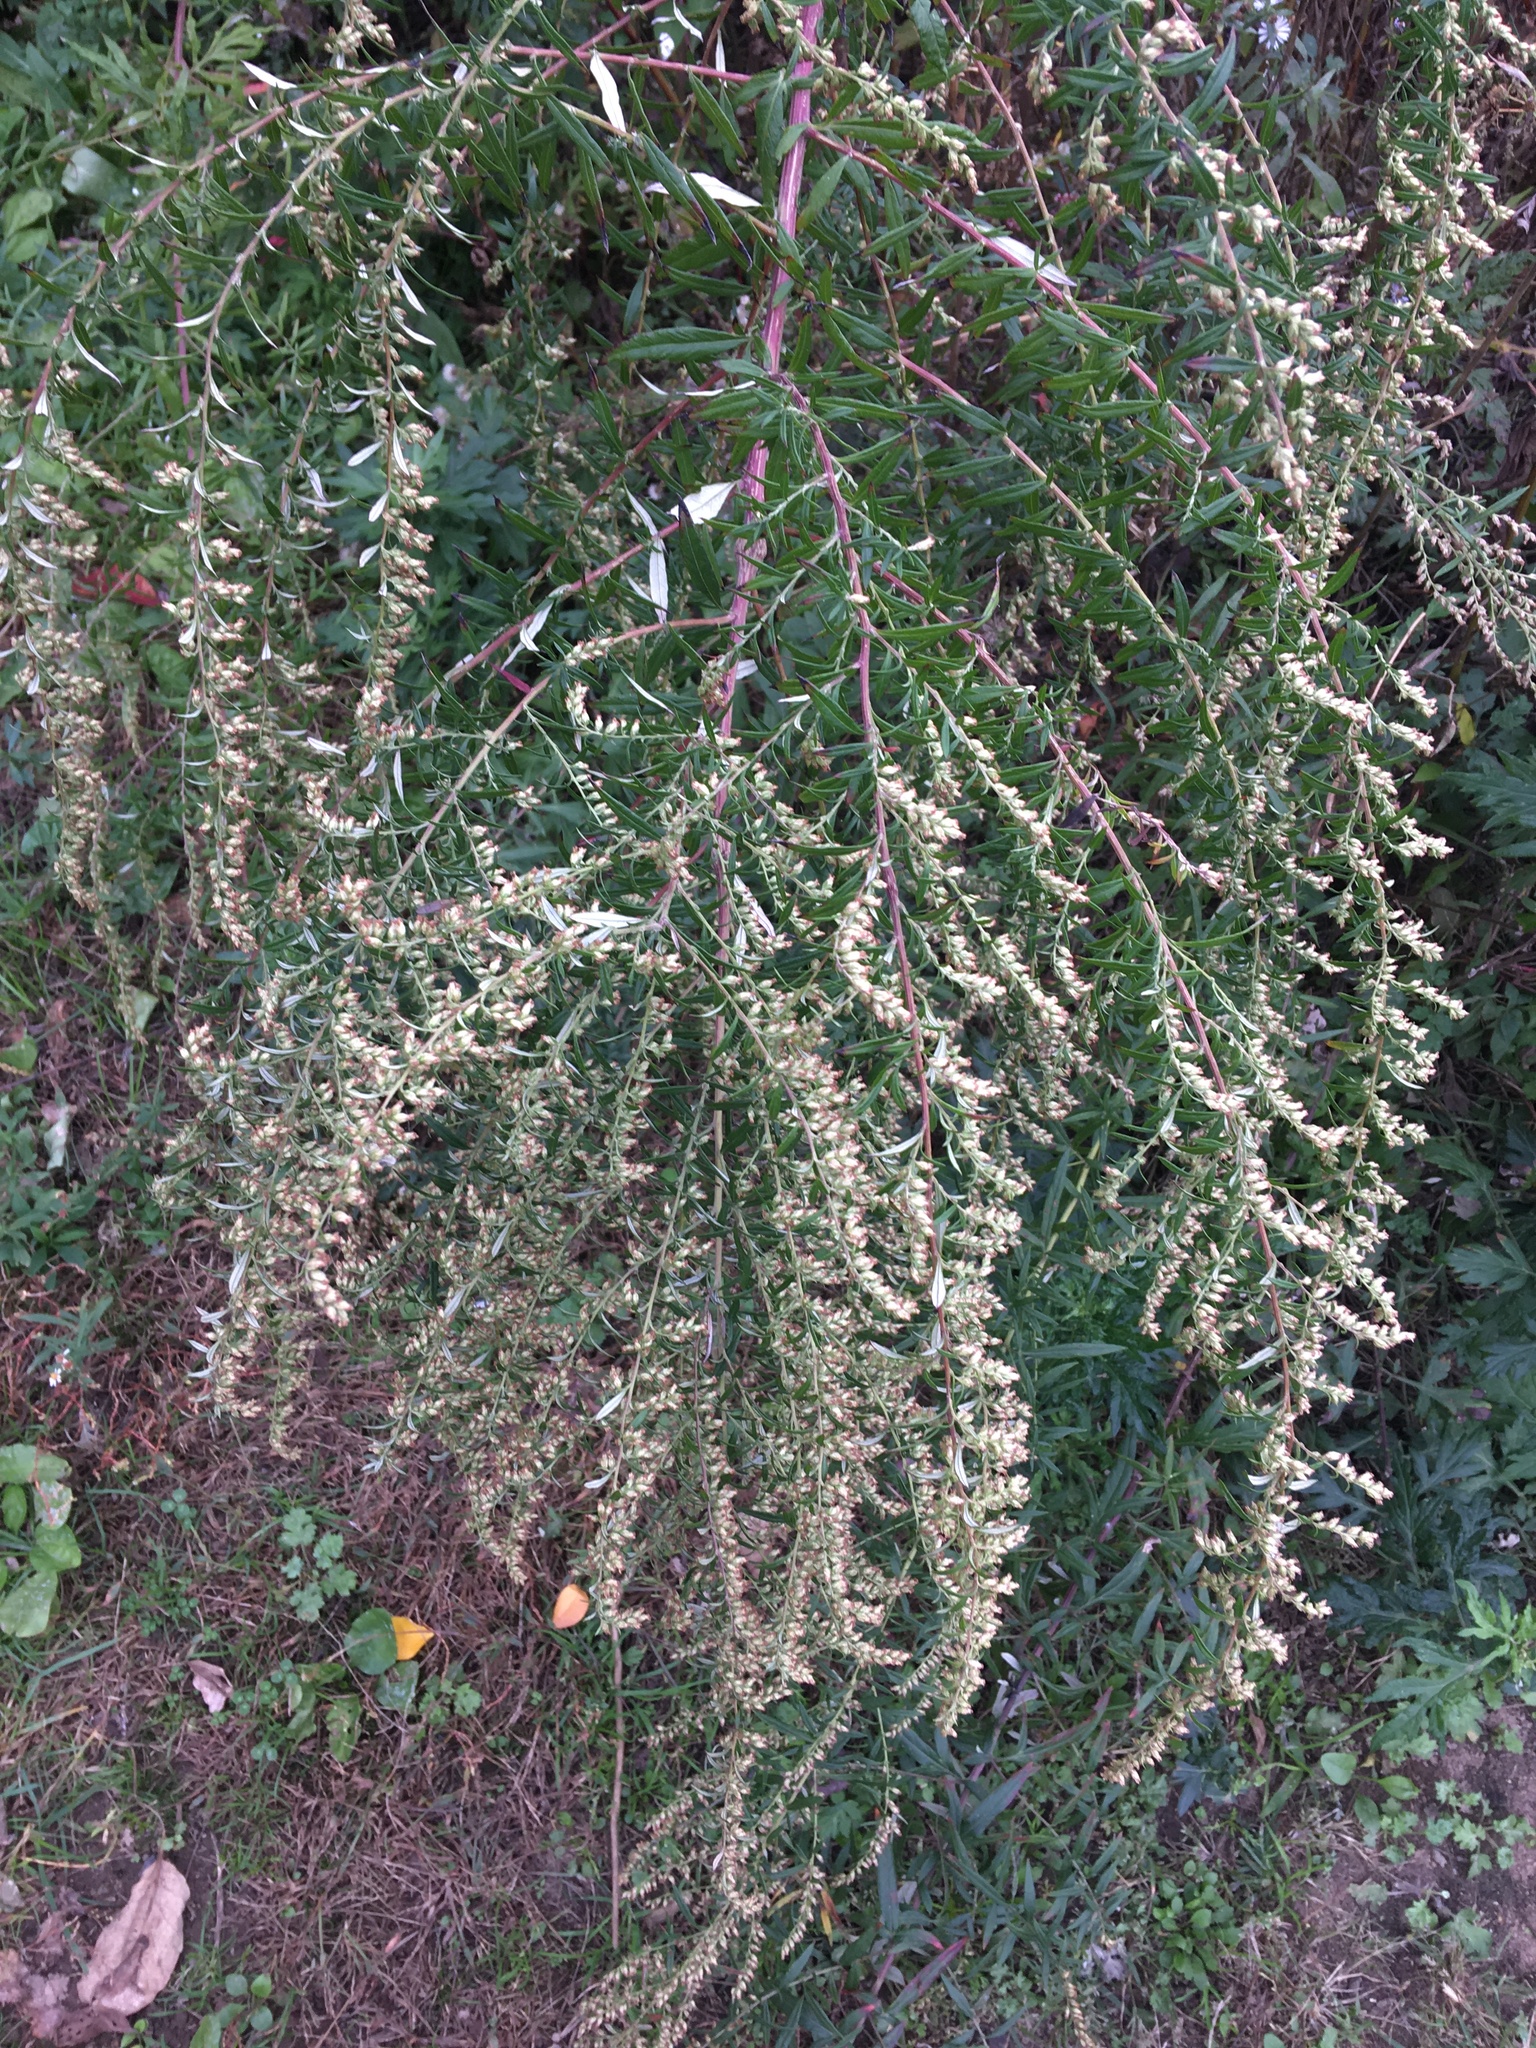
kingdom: Plantae
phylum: Tracheophyta
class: Magnoliopsida
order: Asterales
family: Asteraceae
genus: Artemisia
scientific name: Artemisia vulgaris
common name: Mugwort
